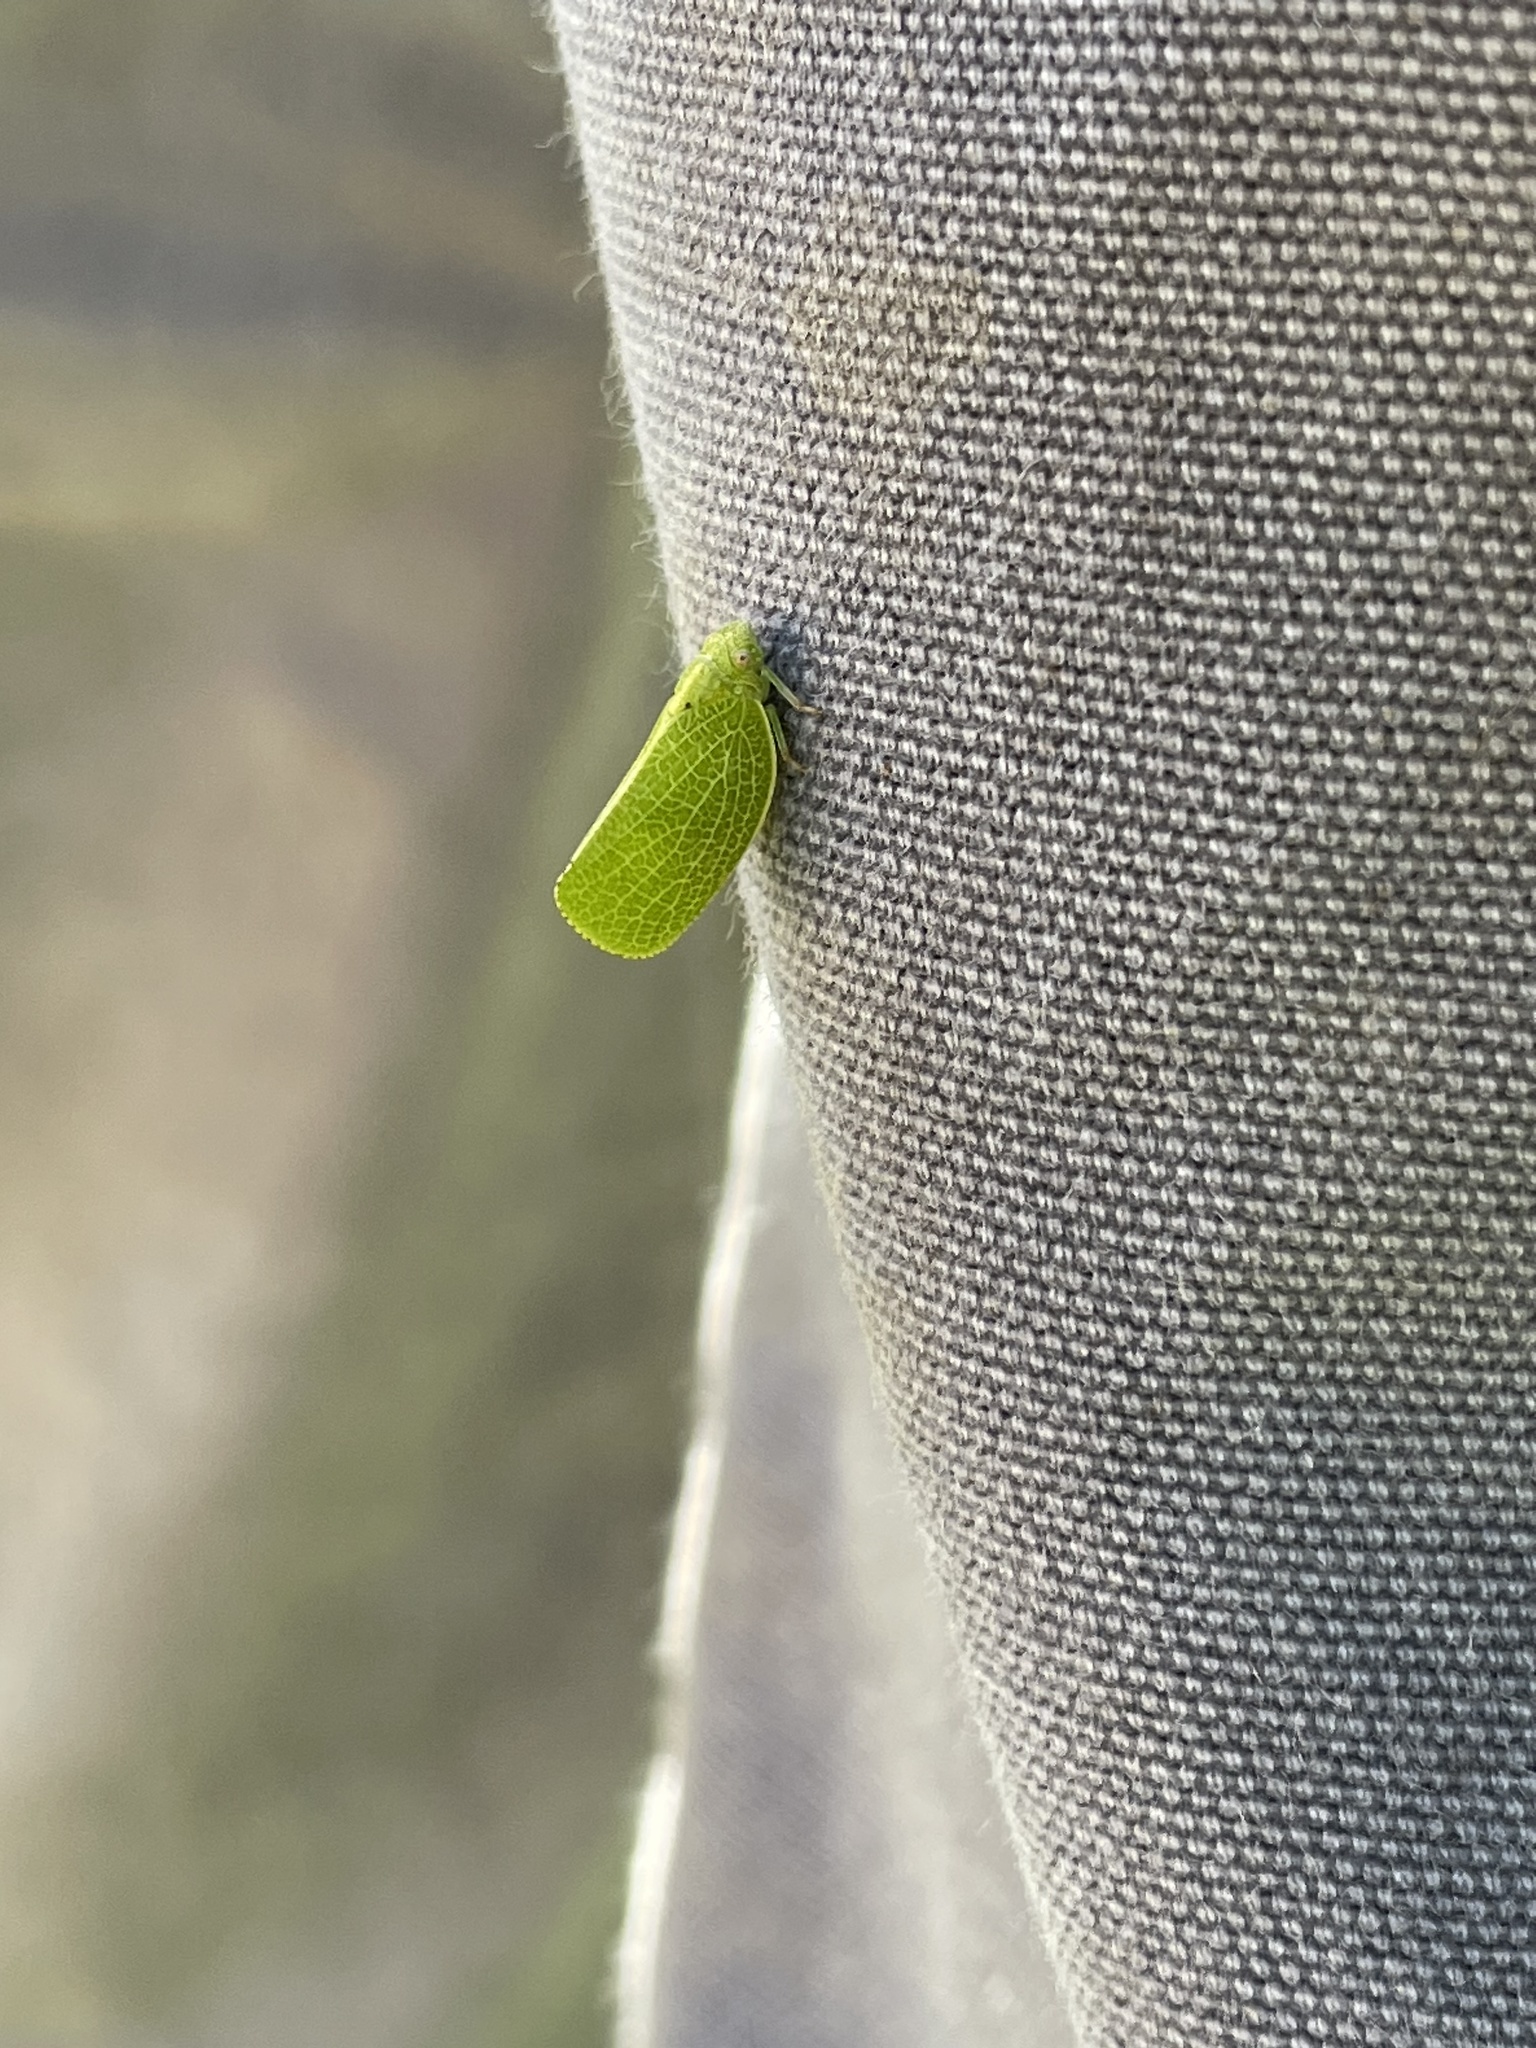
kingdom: Animalia
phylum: Arthropoda
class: Insecta
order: Hemiptera
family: Acanaloniidae
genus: Acanalonia
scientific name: Acanalonia conica
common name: Green cone-headed planthopper
